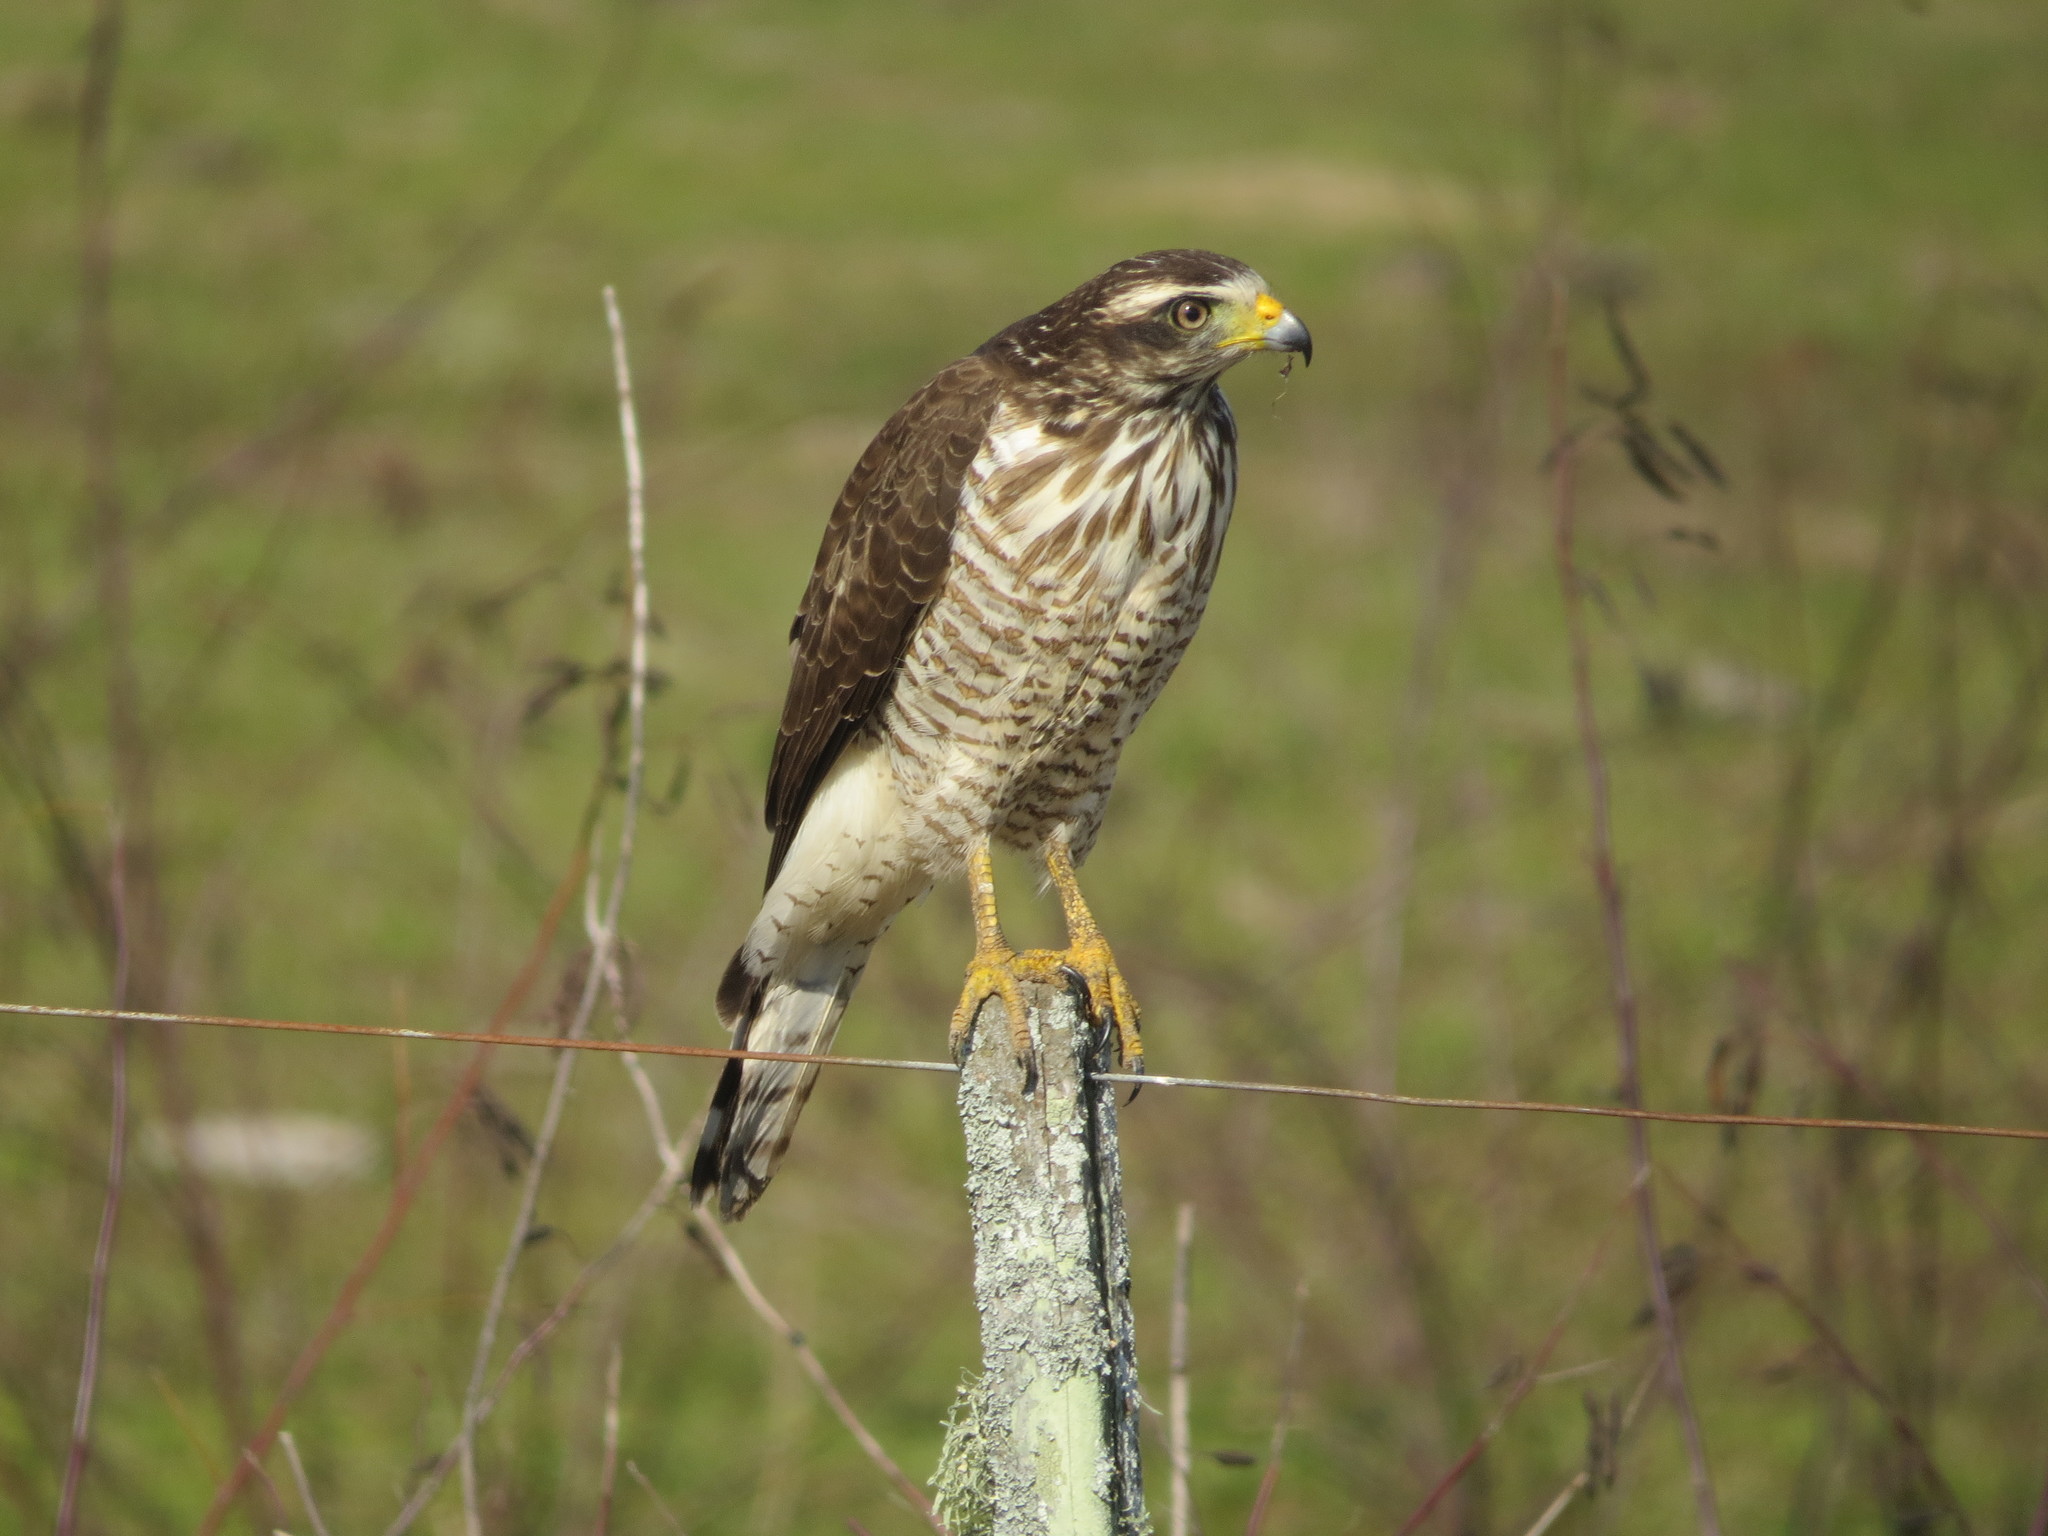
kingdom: Animalia
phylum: Chordata
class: Aves
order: Accipitriformes
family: Accipitridae
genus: Rupornis
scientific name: Rupornis magnirostris
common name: Roadside hawk
